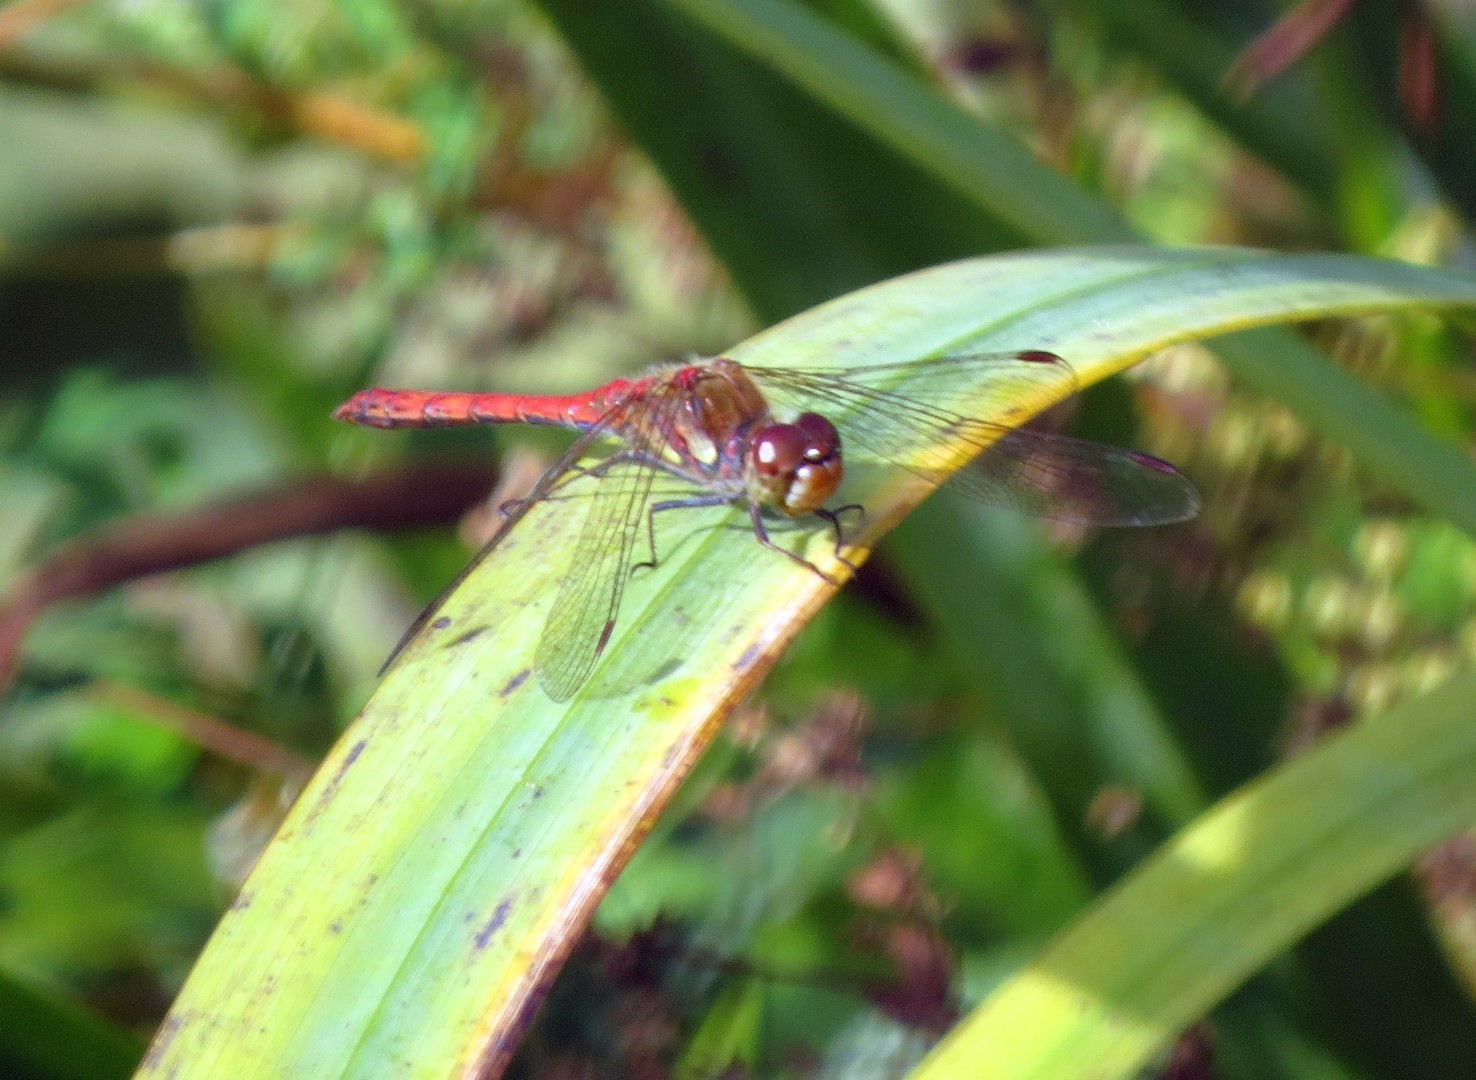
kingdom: Animalia
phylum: Arthropoda
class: Insecta
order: Odonata
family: Libellulidae
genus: Sympetrum
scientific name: Sympetrum sanguineum
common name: Ruddy darter
